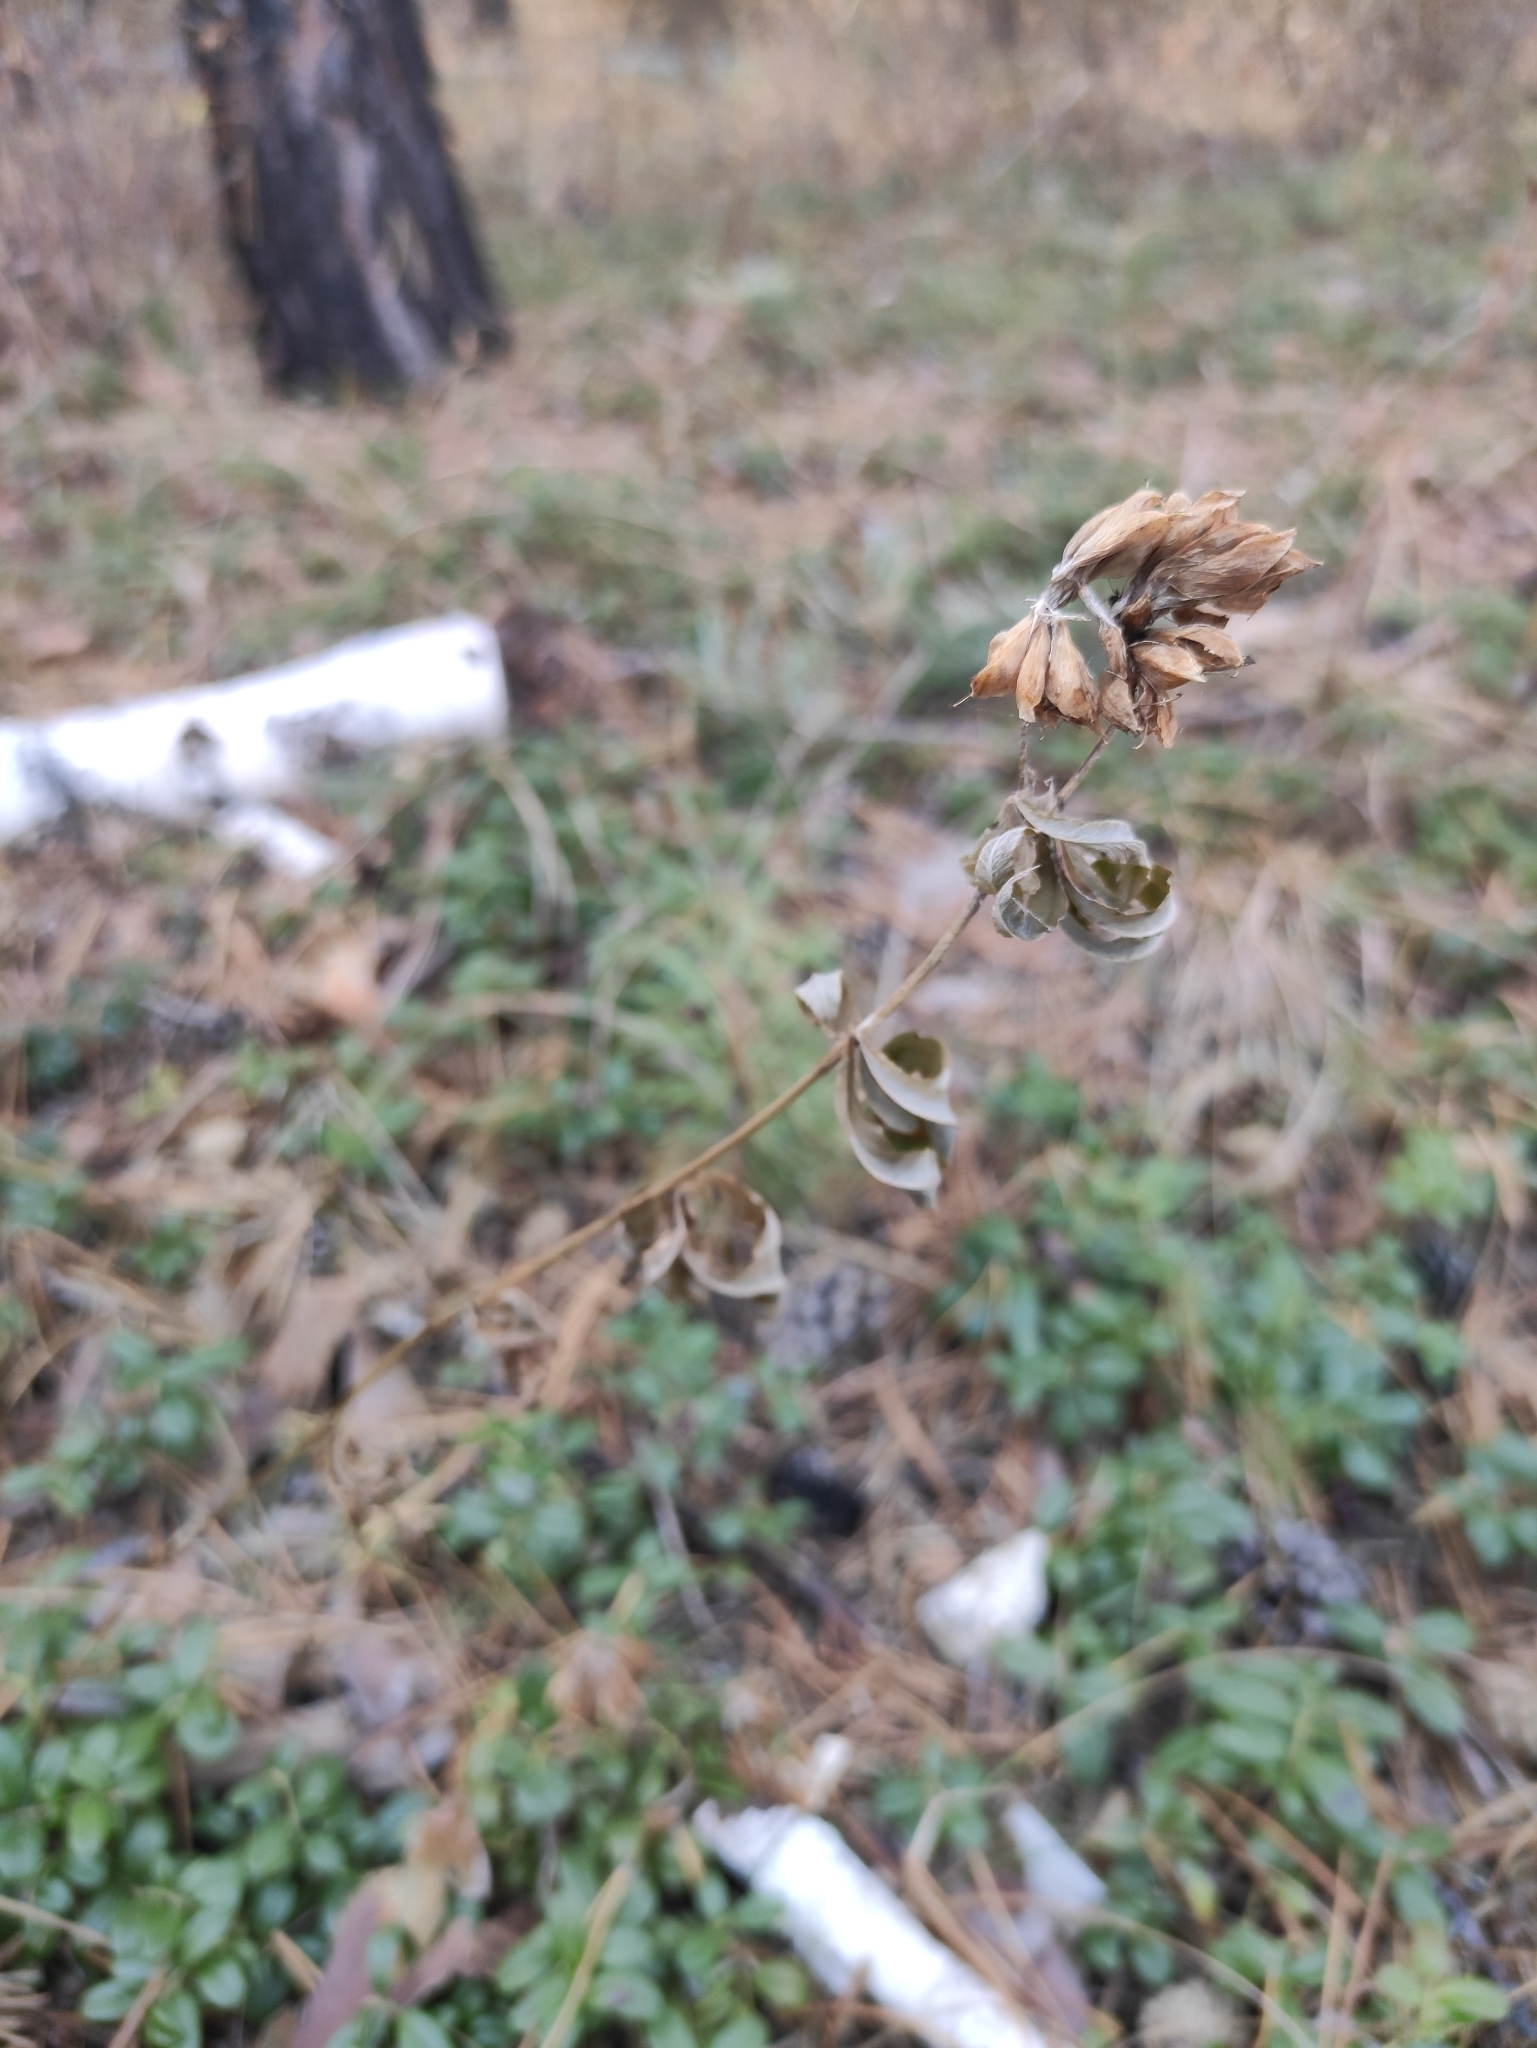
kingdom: Plantae
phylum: Tracheophyta
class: Magnoliopsida
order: Fabales
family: Fabaceae
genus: Trifolium
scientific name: Trifolium lupinaster
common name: Lupine clover
